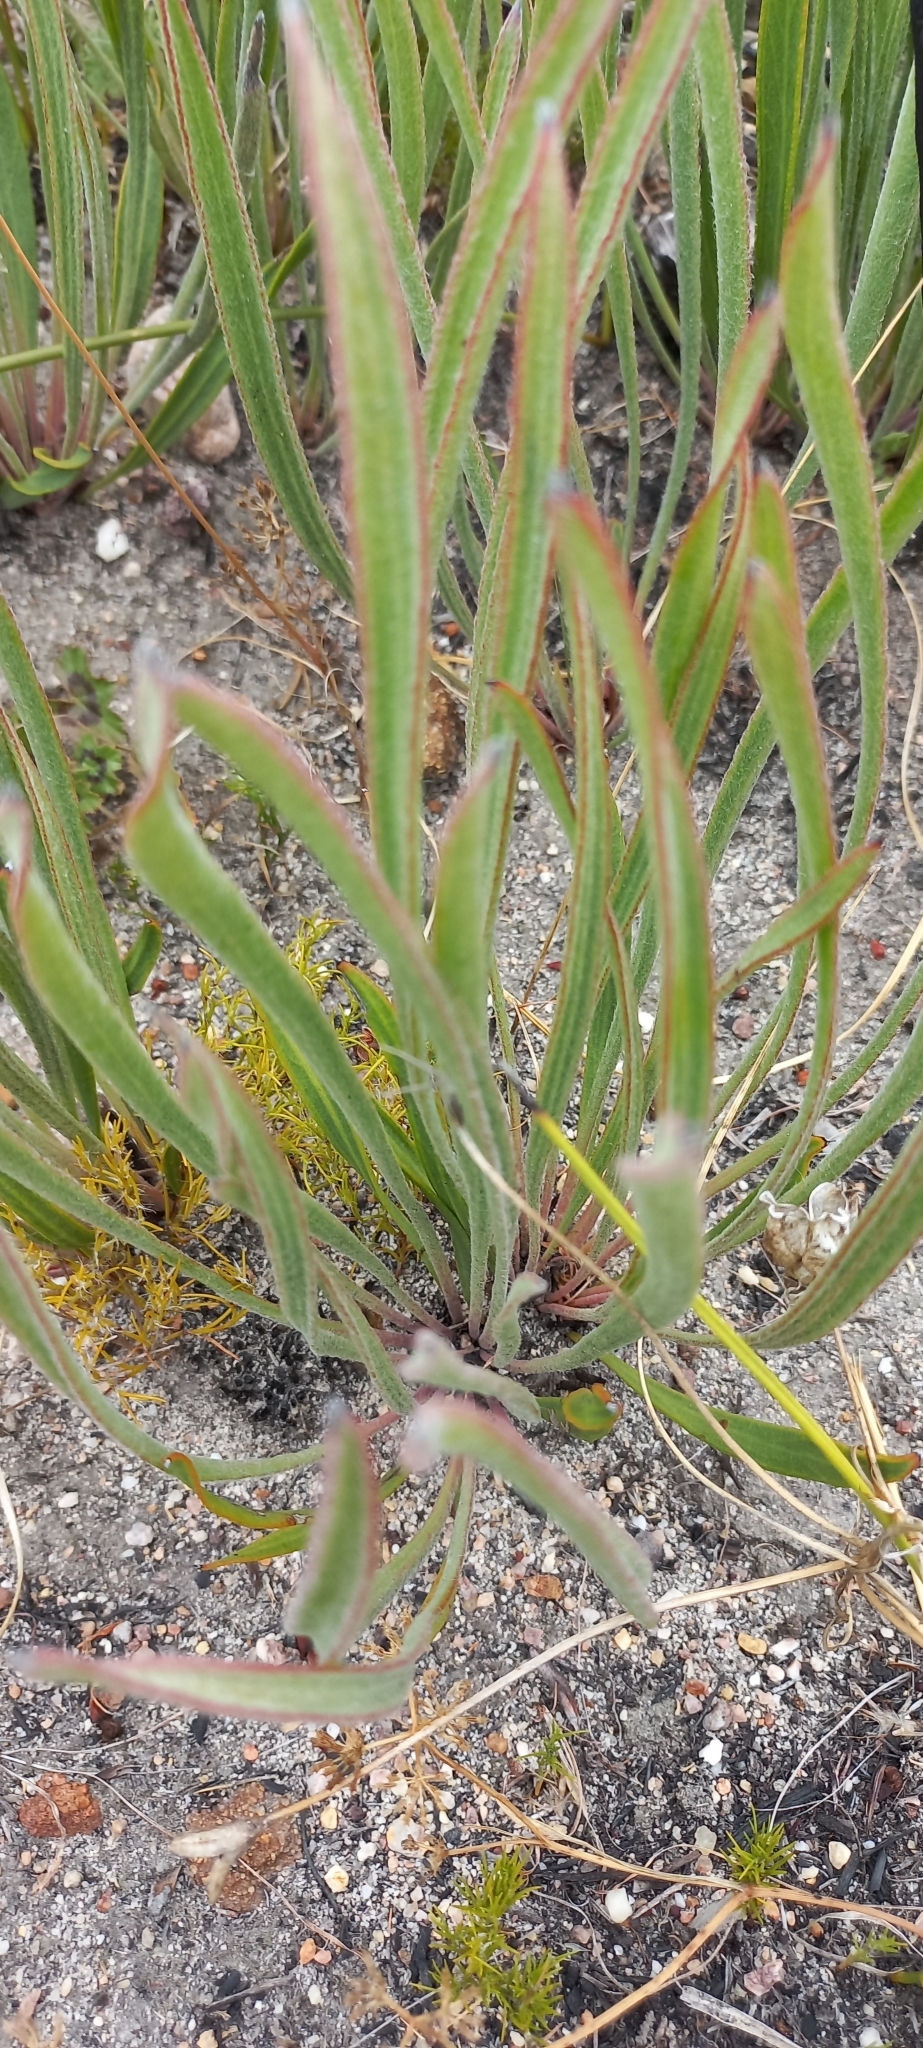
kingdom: Plantae
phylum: Tracheophyta
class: Magnoliopsida
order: Proteales
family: Proteaceae
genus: Protea
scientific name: Protea scabra
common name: Sandpaper-leaf sugarbush
